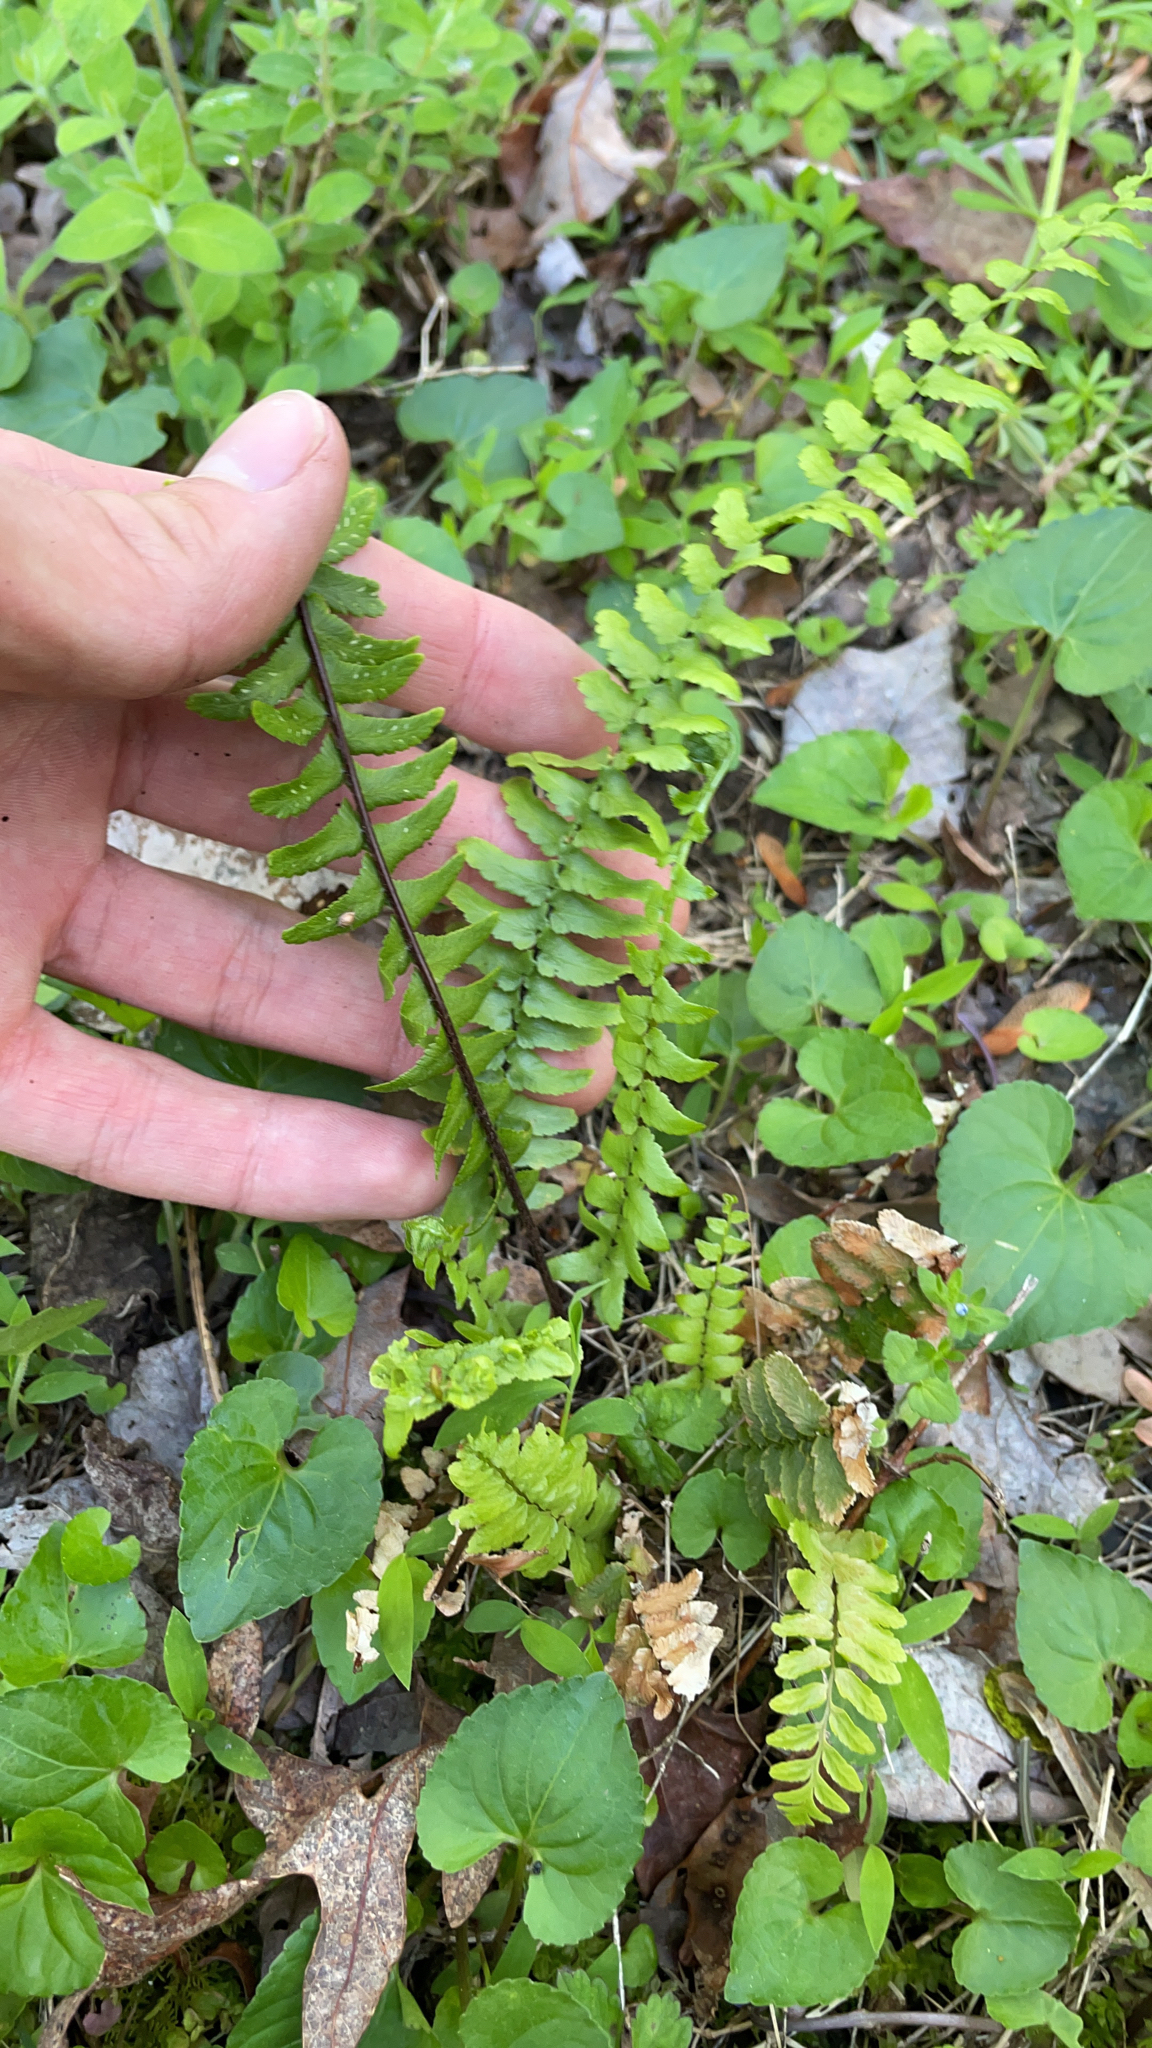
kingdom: Plantae
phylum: Tracheophyta
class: Polypodiopsida
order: Polypodiales
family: Aspleniaceae
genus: Asplenium
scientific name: Asplenium platyneuron
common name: Ebony spleenwort
